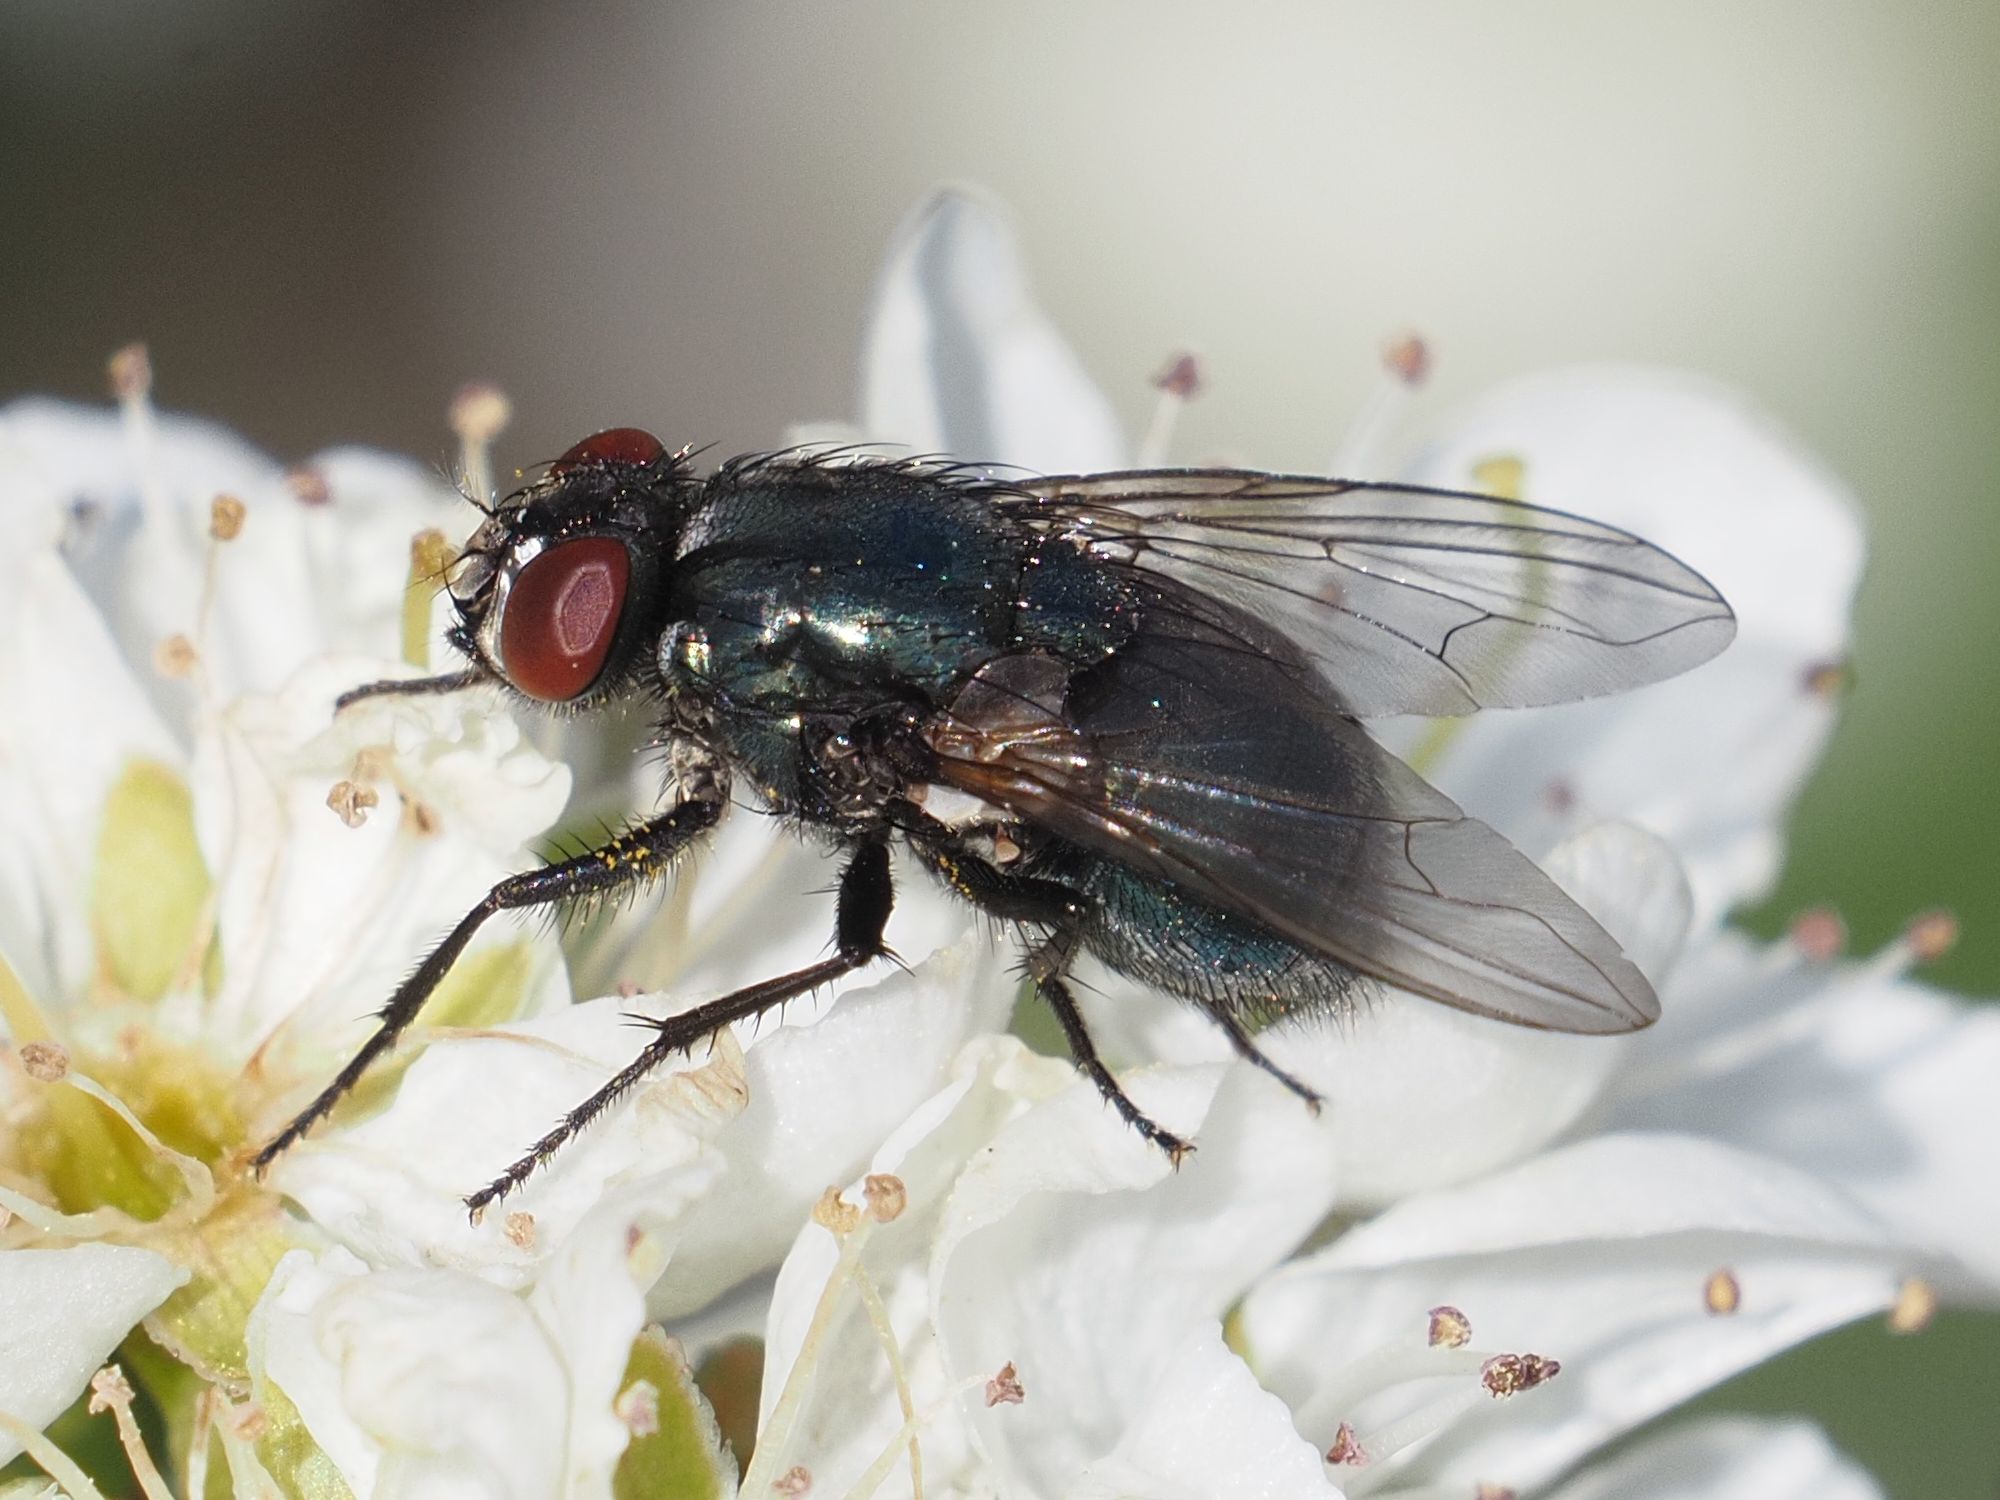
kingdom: Animalia
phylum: Arthropoda
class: Insecta
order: Diptera
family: Muscidae
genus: Eudasyphora
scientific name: Eudasyphora cyanicolor
